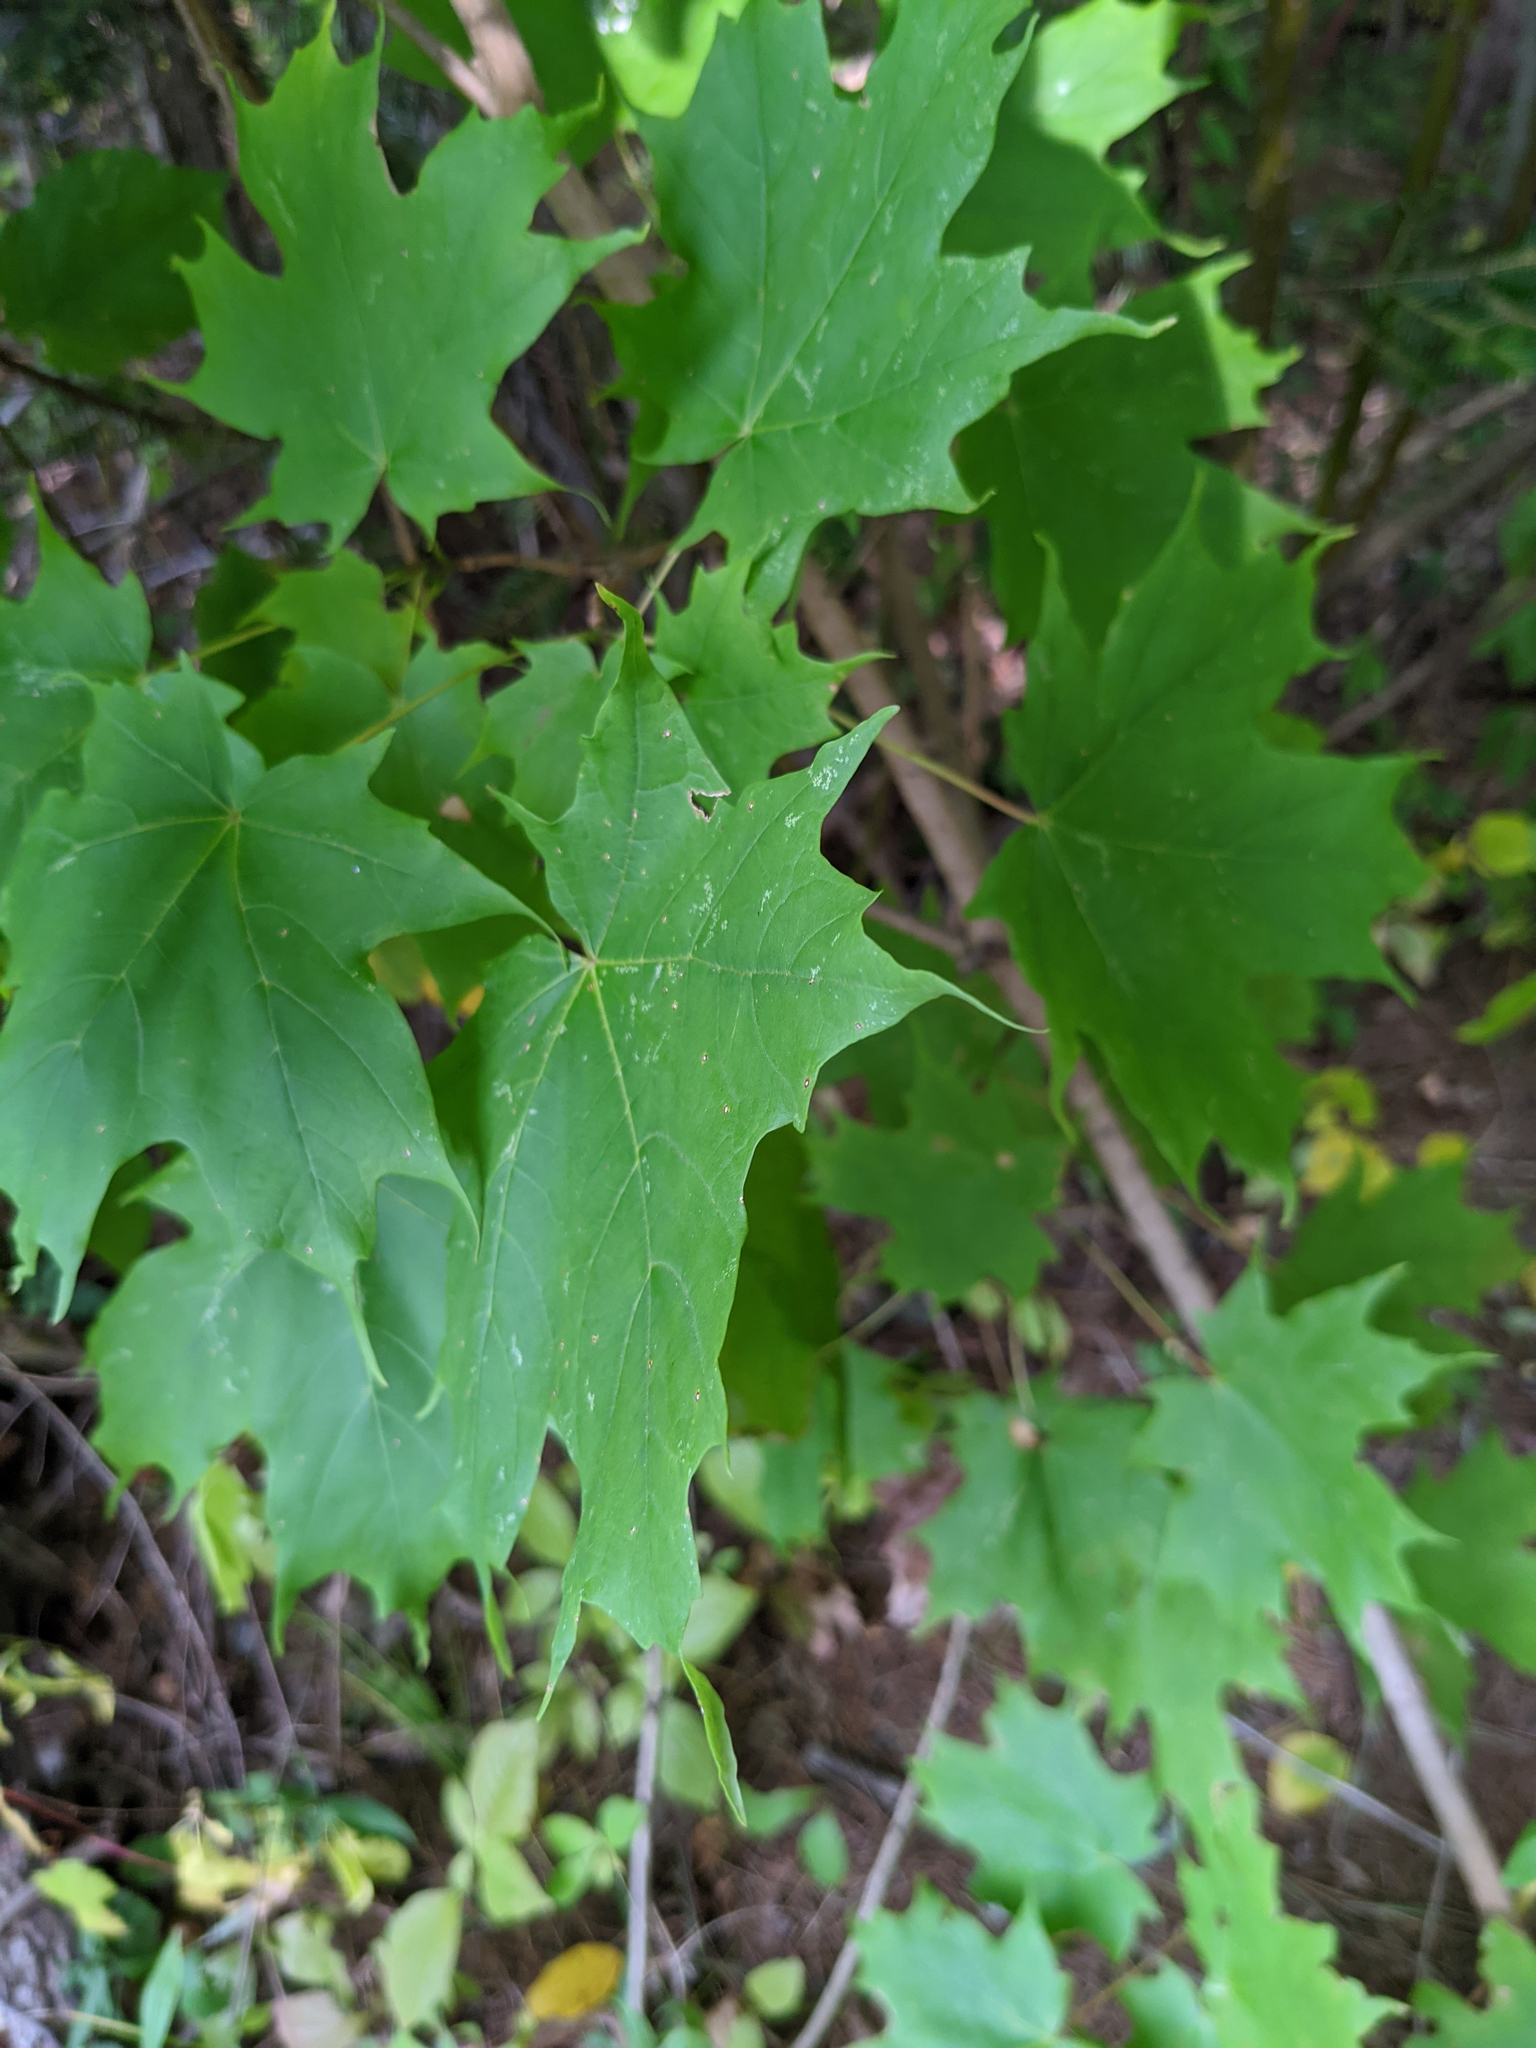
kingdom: Plantae
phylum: Tracheophyta
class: Magnoliopsida
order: Sapindales
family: Sapindaceae
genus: Acer
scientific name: Acer saccharum
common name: Sugar maple
